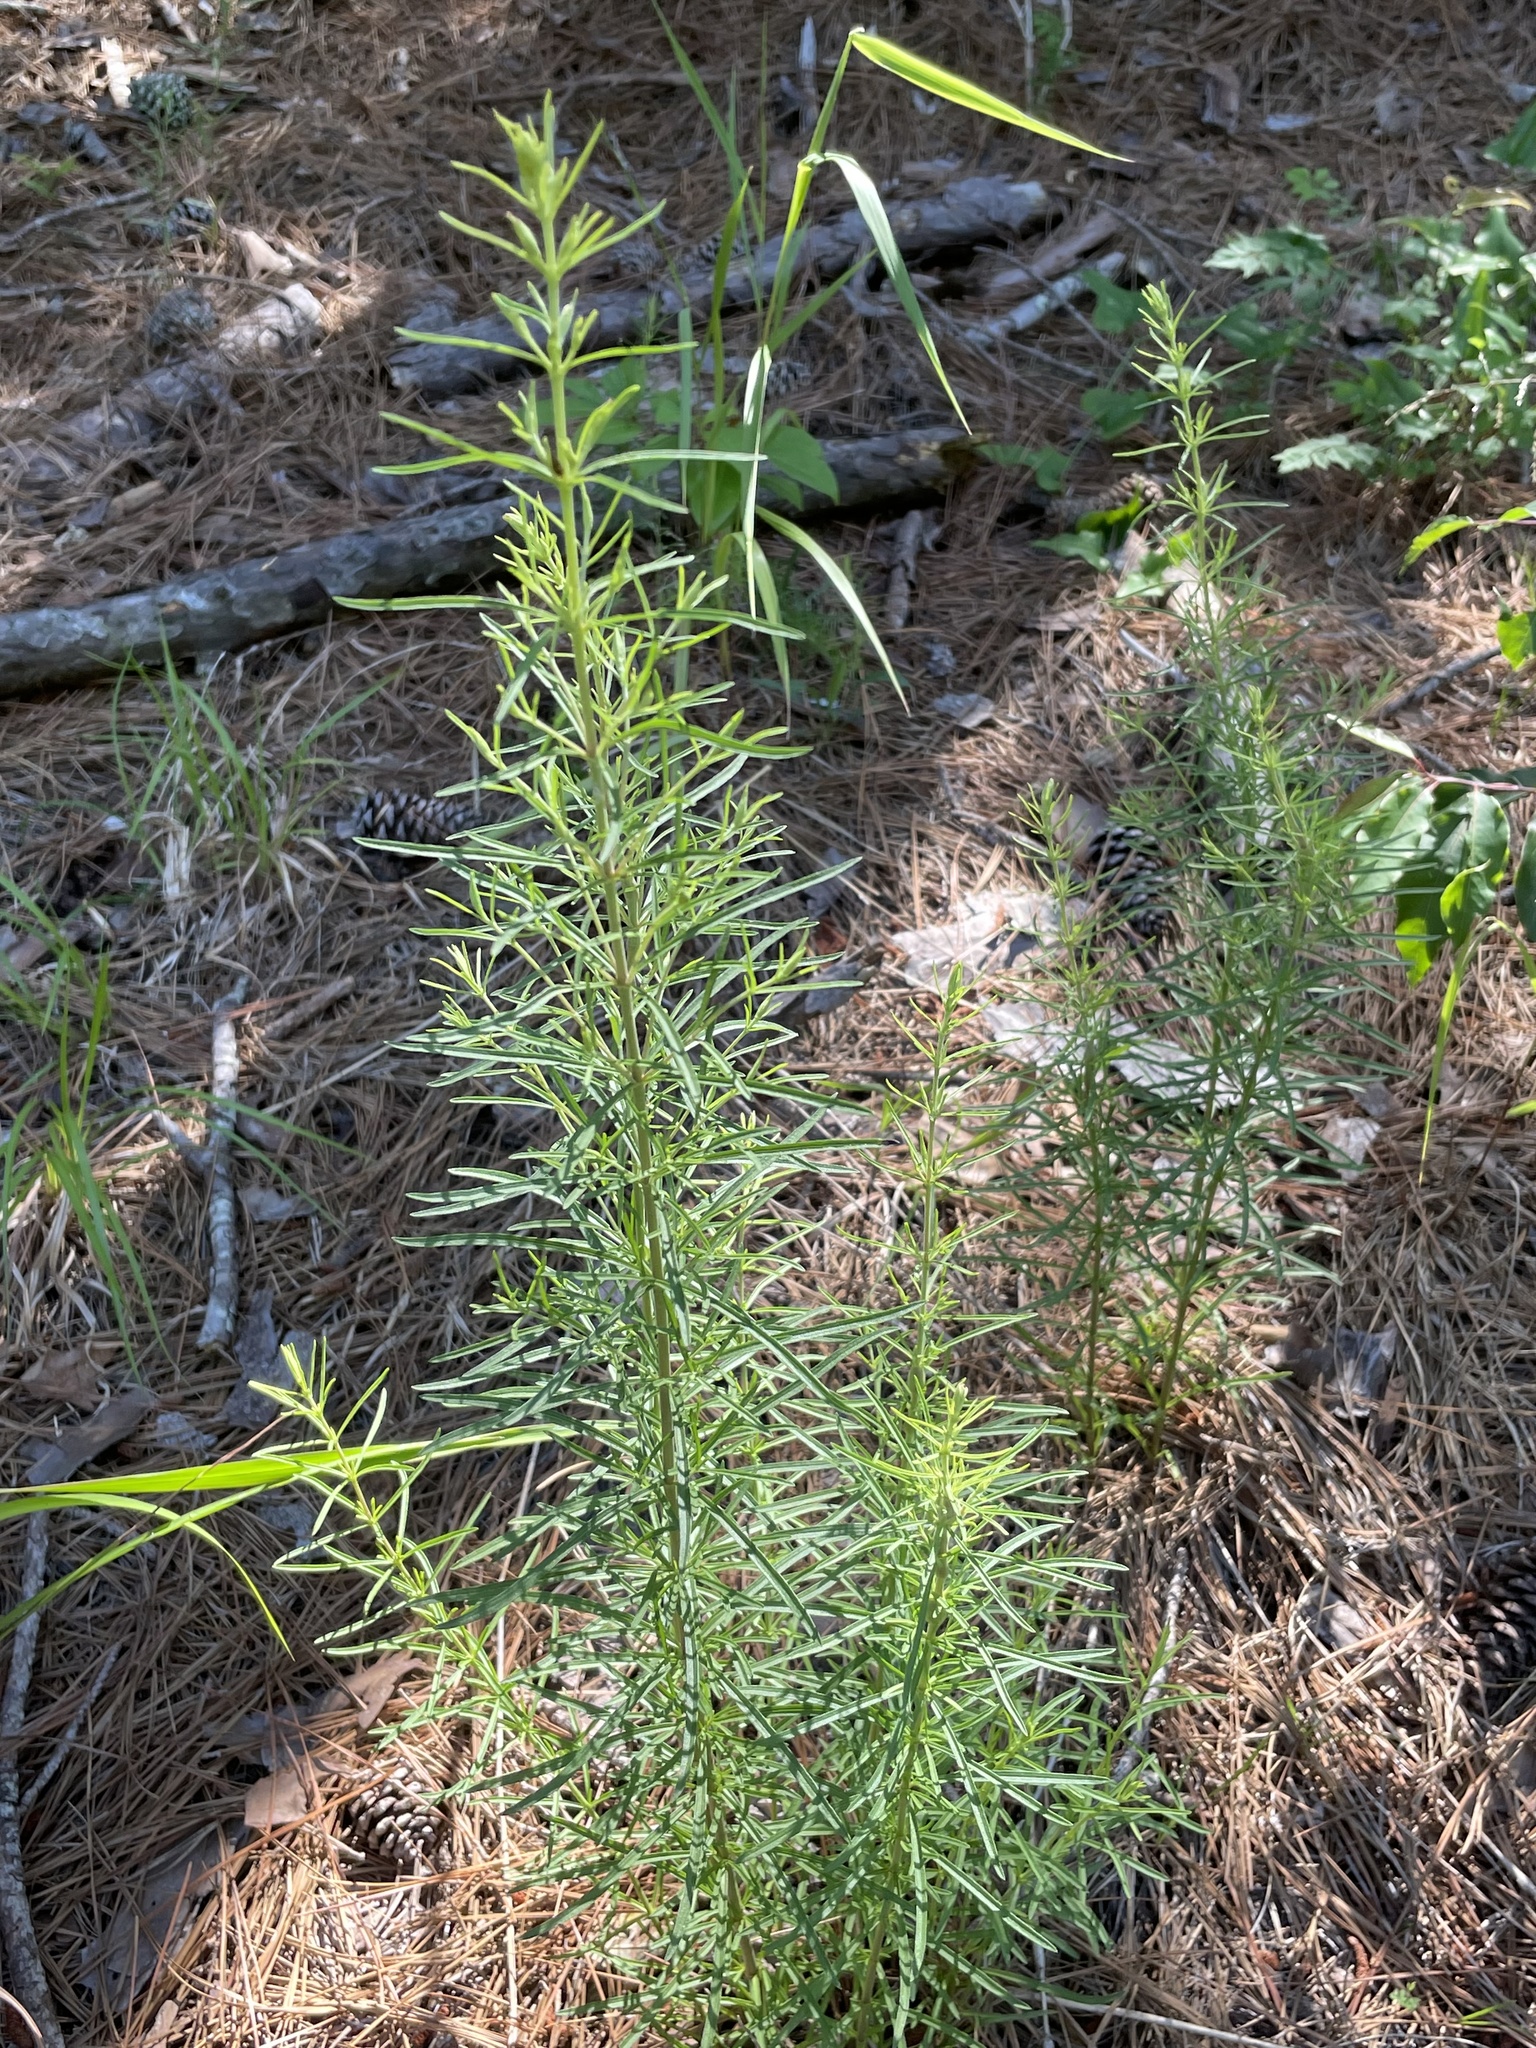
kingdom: Plantae
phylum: Tracheophyta
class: Magnoliopsida
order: Asterales
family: Asteraceae
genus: Eupatorium
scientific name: Eupatorium hyssopifolium
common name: Hyssop-leaf thoroughwort
